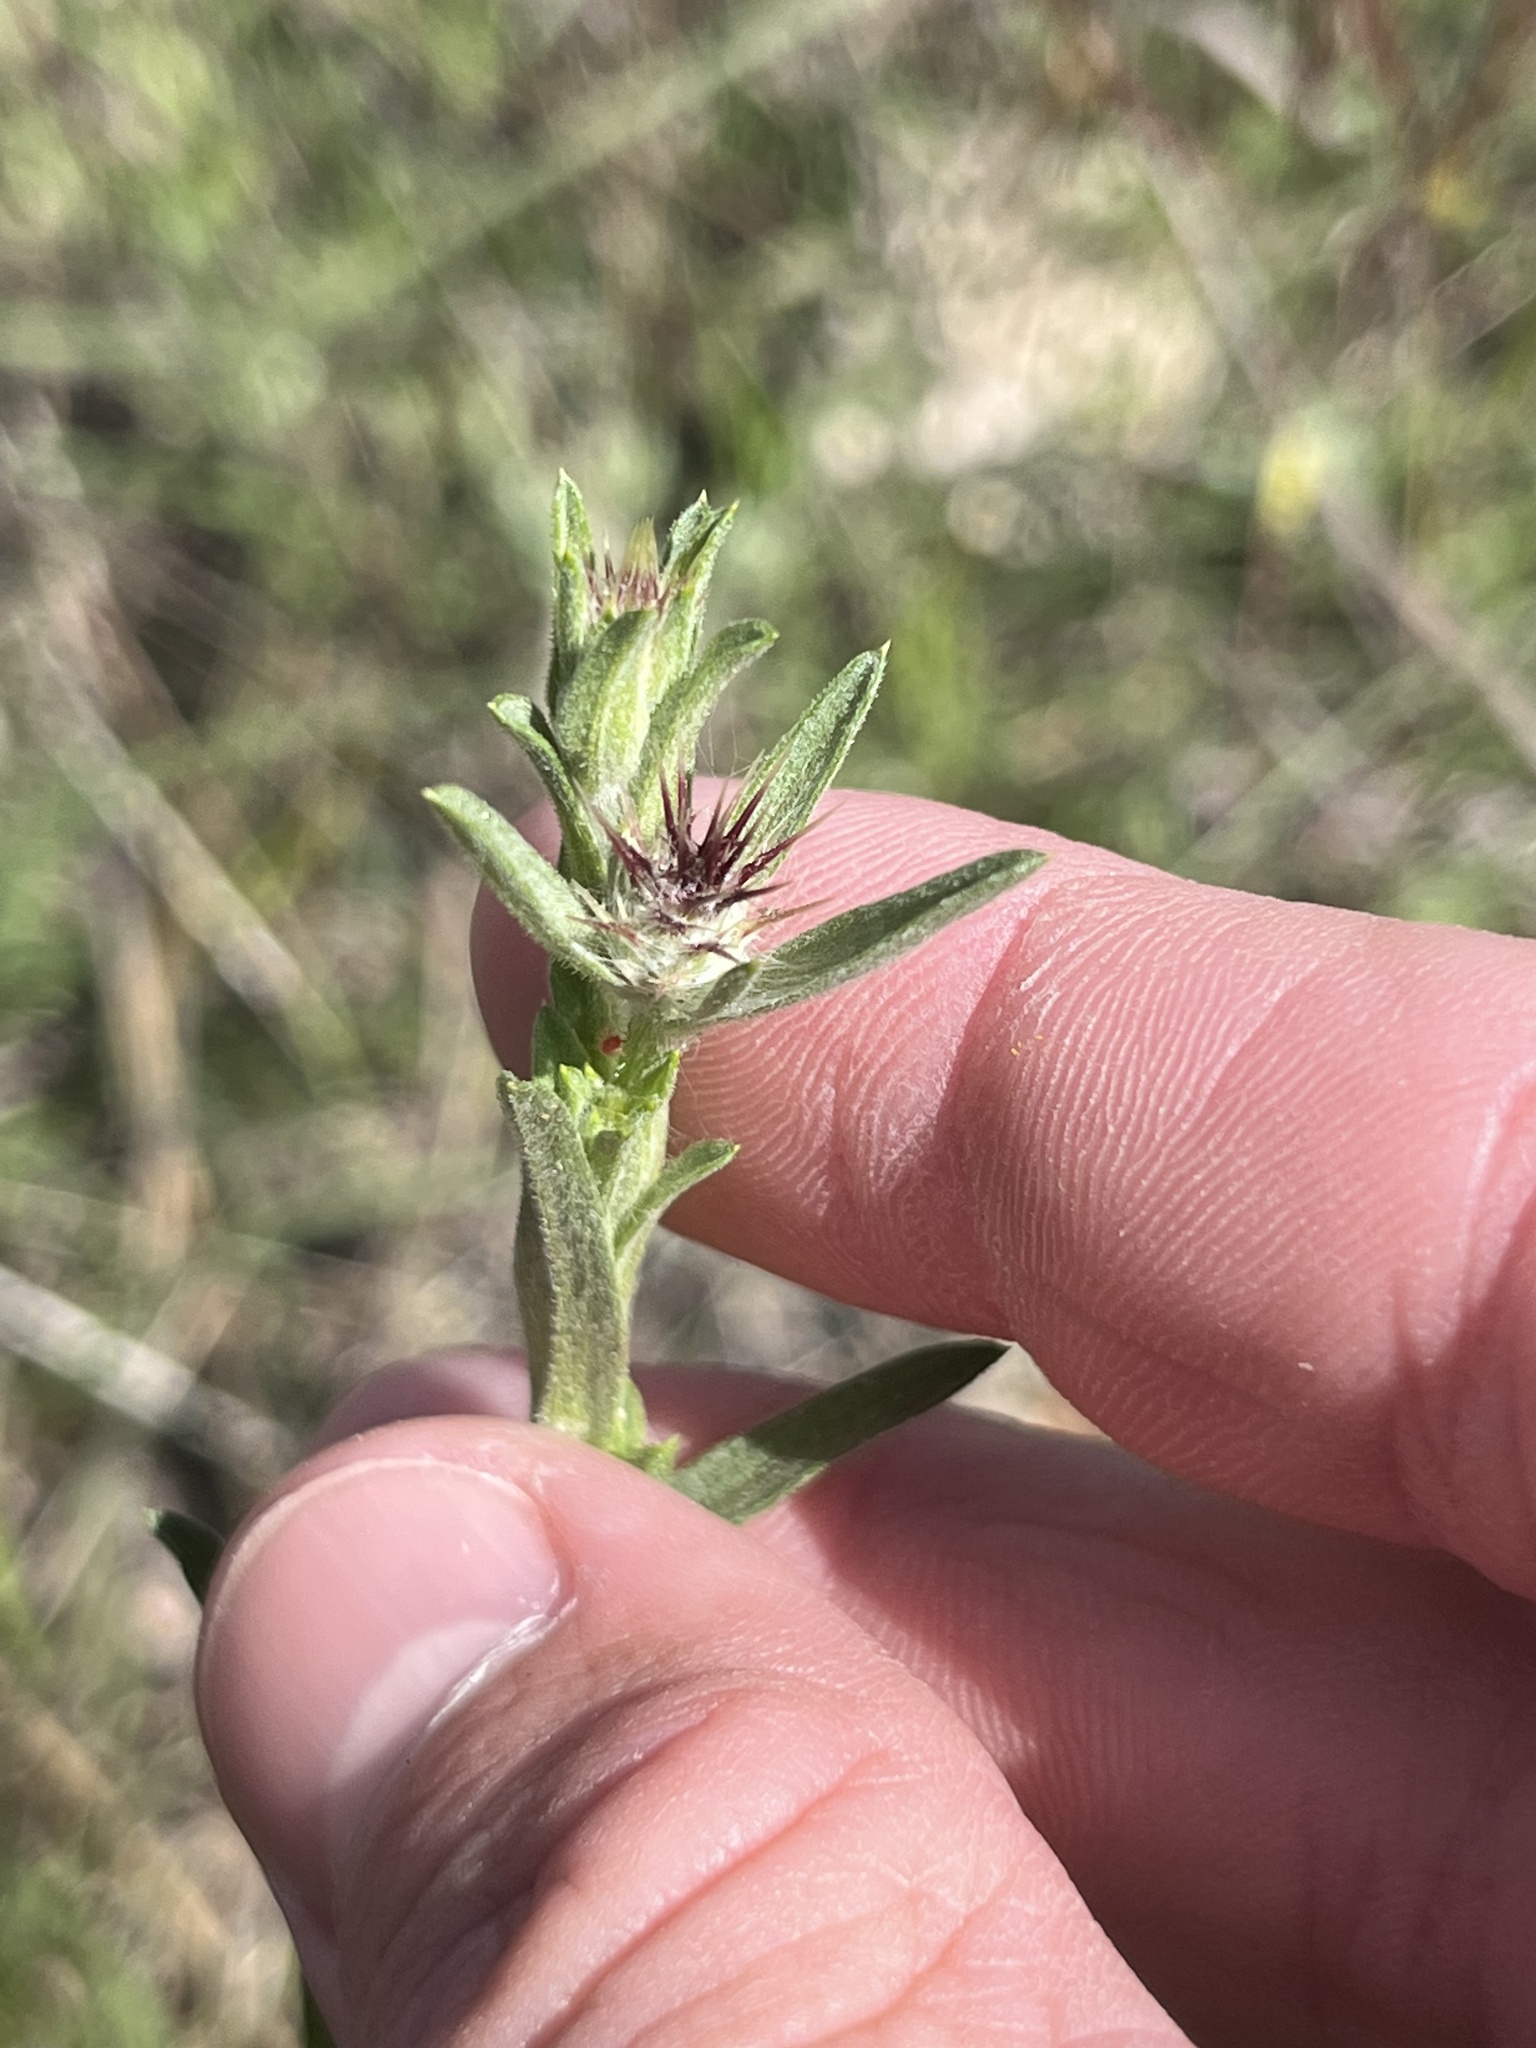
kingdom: Plantae
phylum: Tracheophyta
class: Magnoliopsida
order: Asterales
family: Asteraceae
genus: Centaurea
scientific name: Centaurea melitensis
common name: Maltese star-thistle
